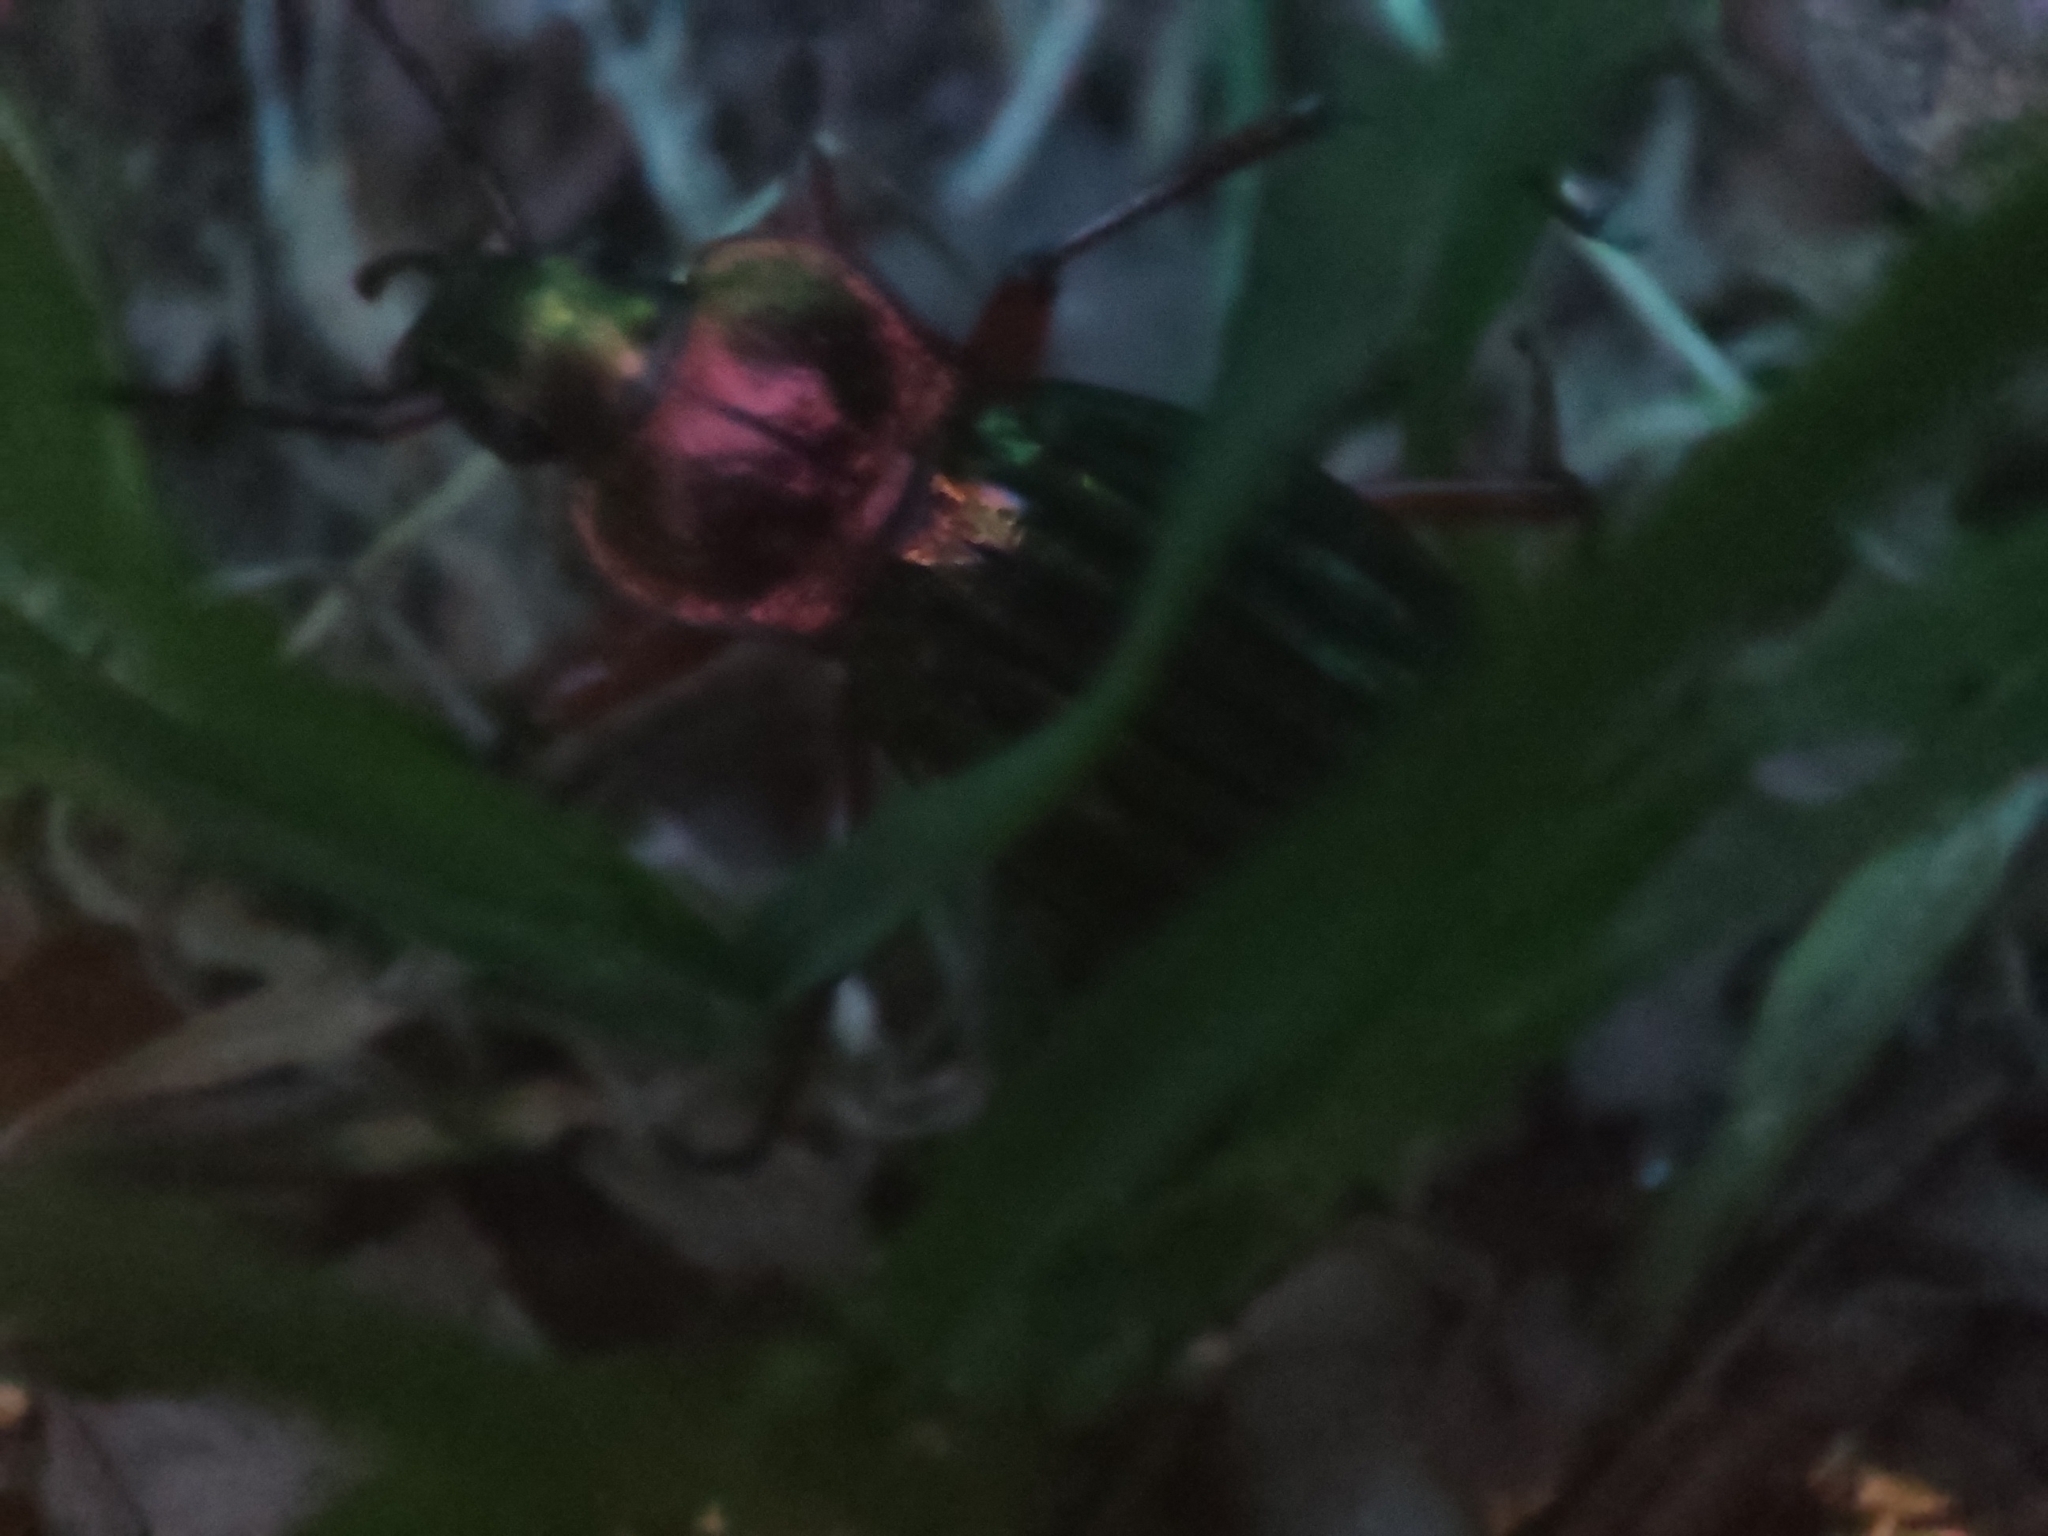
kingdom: Animalia
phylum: Arthropoda
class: Insecta
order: Coleoptera
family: Carabidae
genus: Carabus
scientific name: Carabus auronitens
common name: Carabus auronitens
